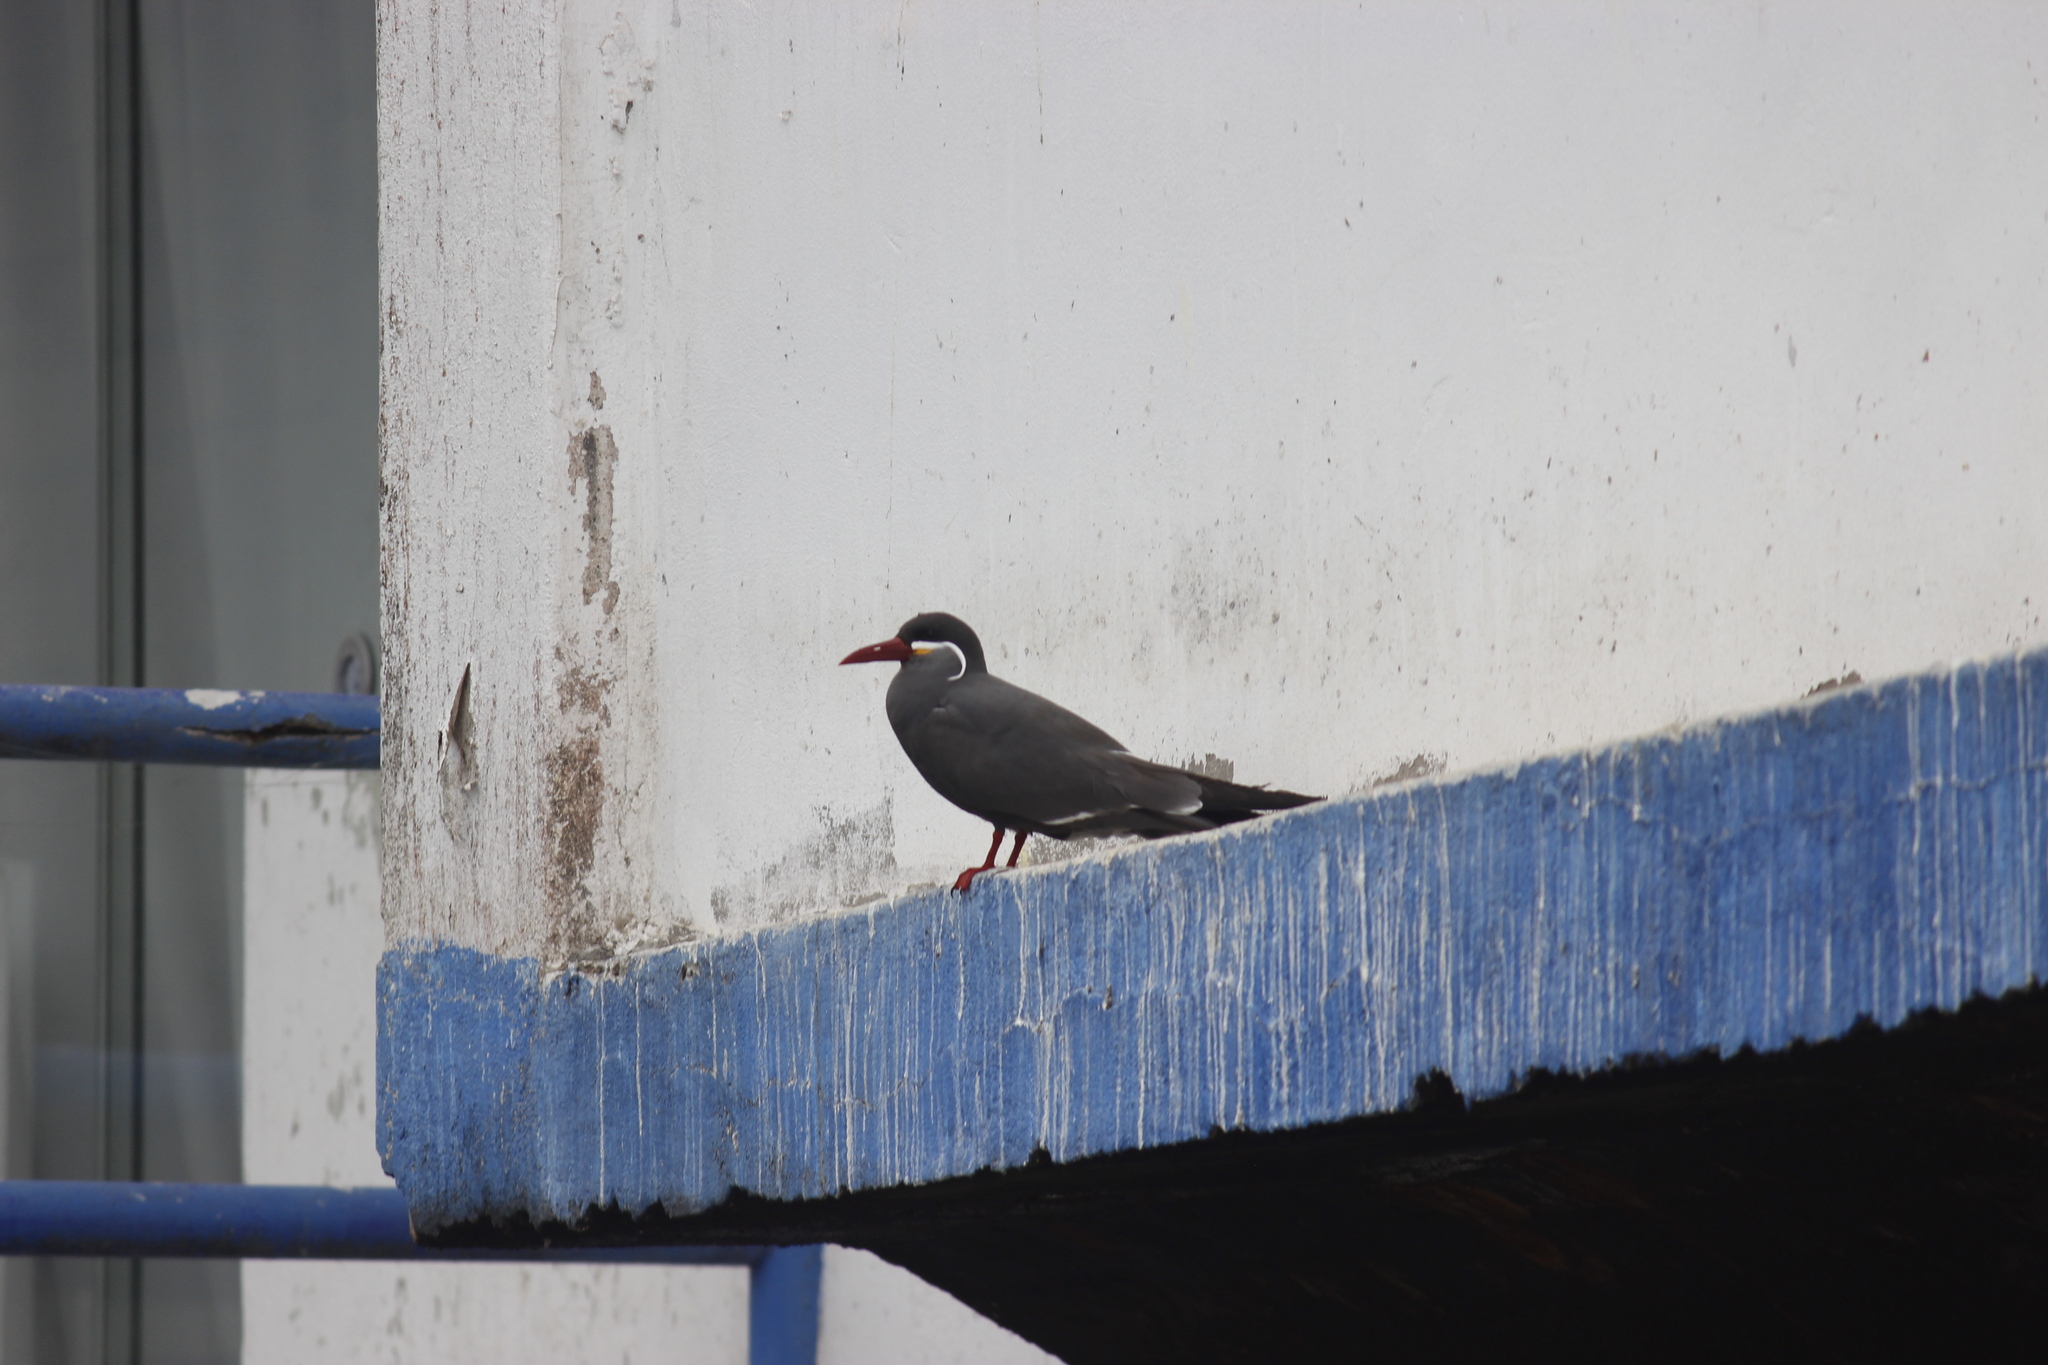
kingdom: Animalia
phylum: Chordata
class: Aves
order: Charadriiformes
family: Laridae
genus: Larosterna
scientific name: Larosterna inca
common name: Inca tern
